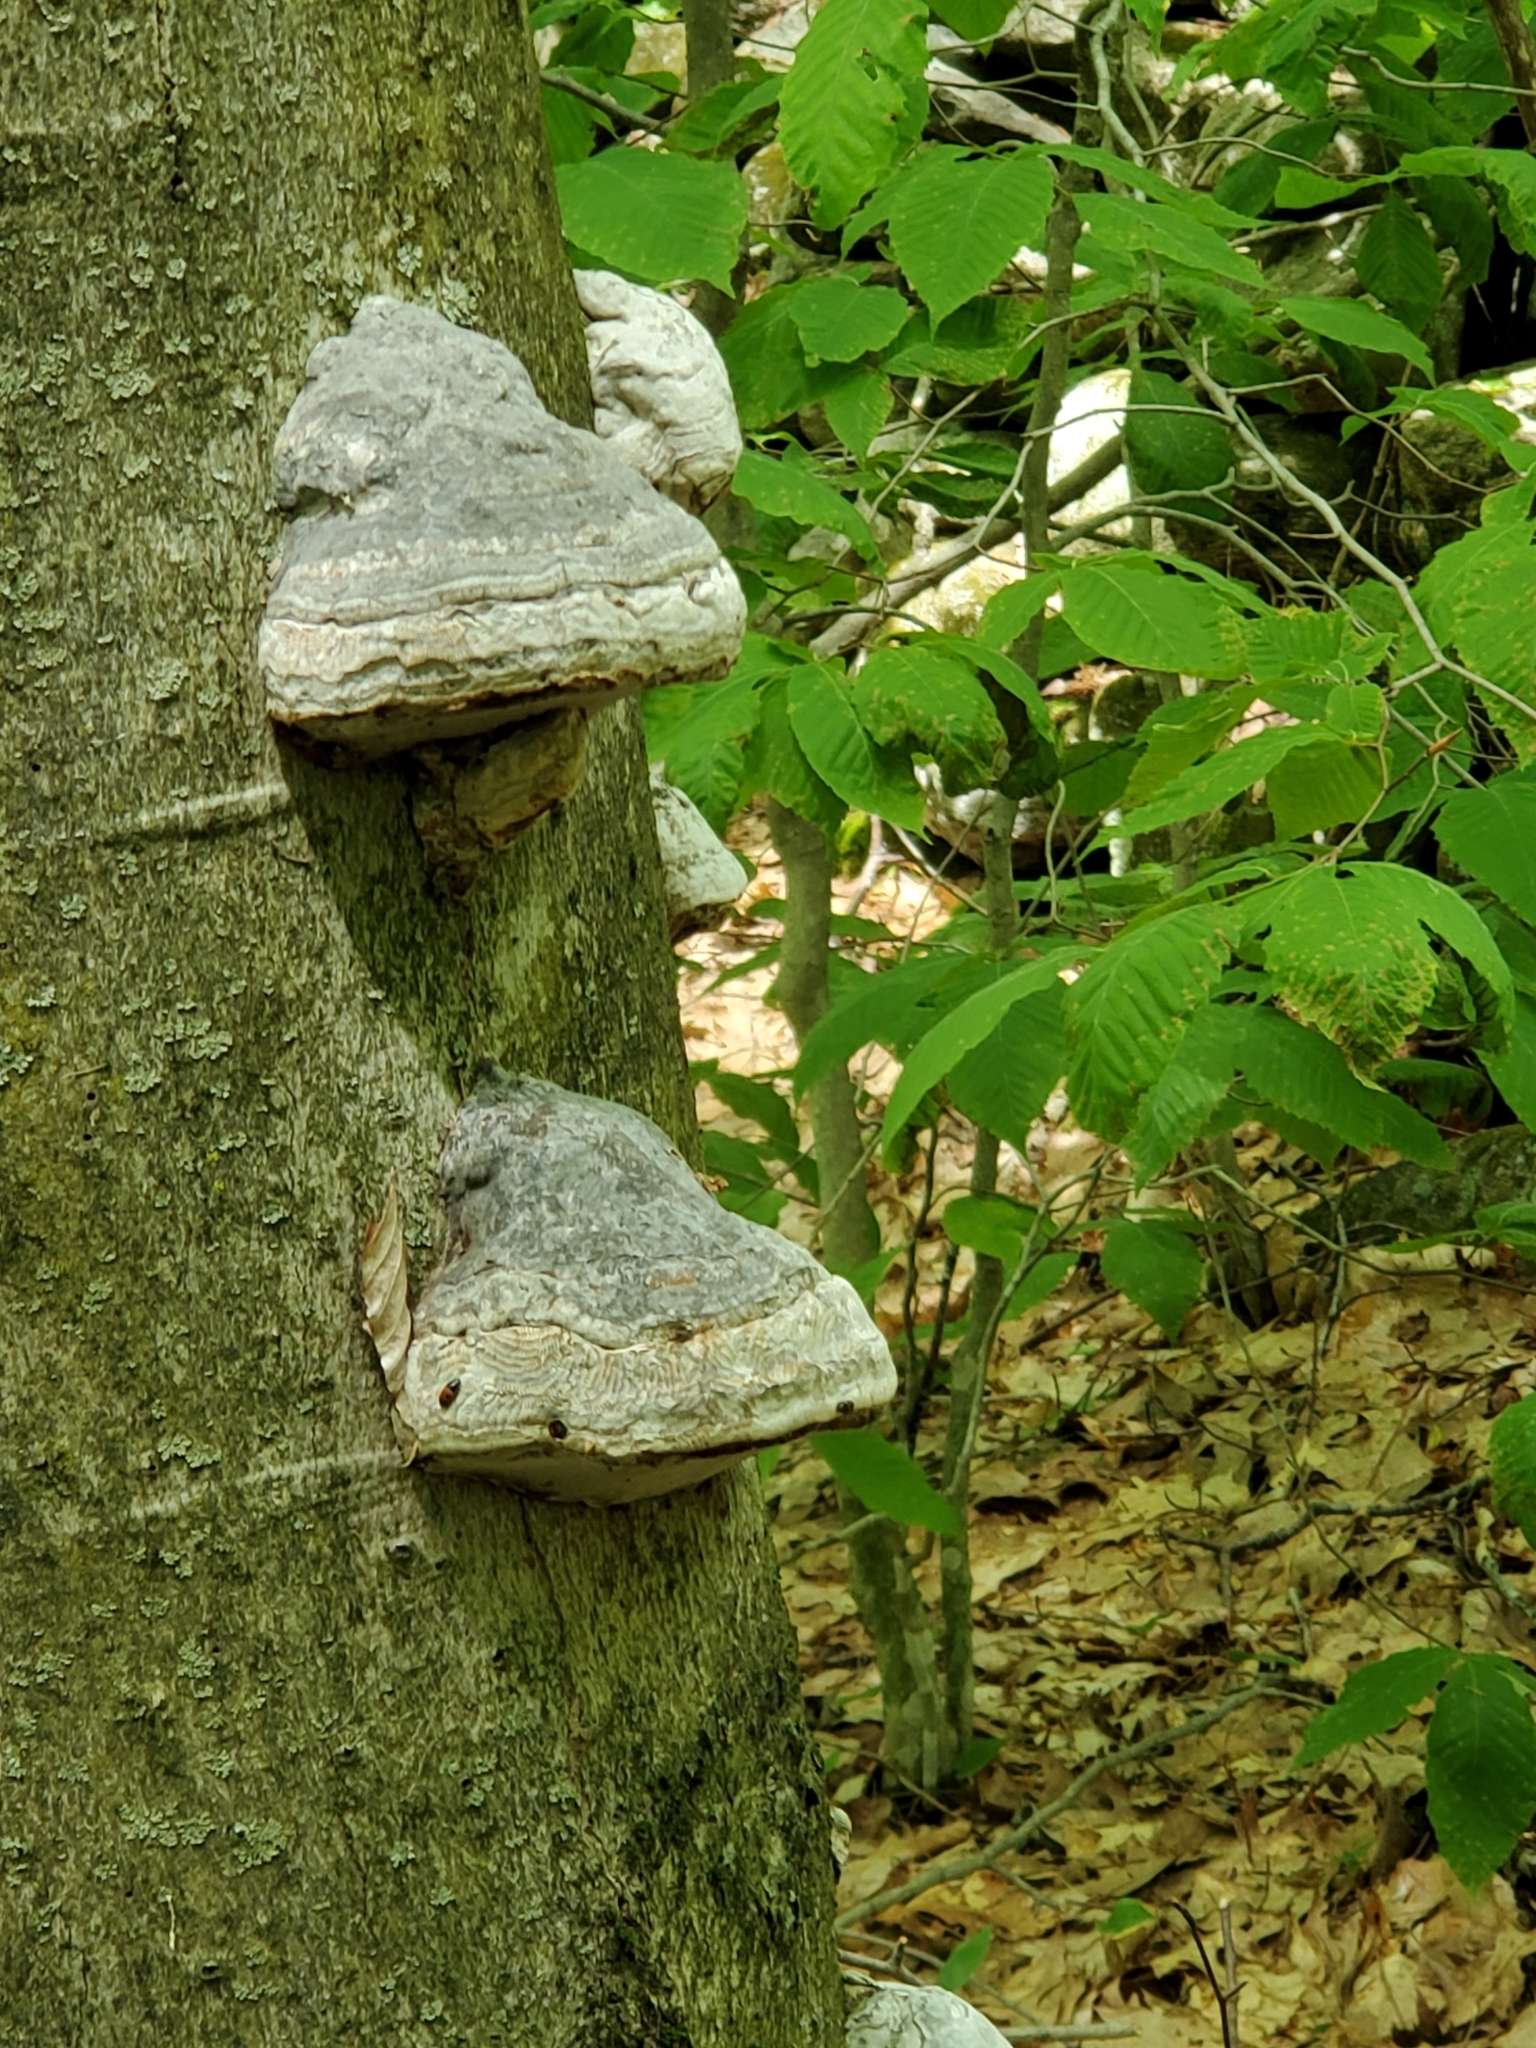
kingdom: Fungi
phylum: Basidiomycota
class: Agaricomycetes
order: Polyporales
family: Polyporaceae
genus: Fomes
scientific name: Fomes fomentarius
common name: Hoof fungus
